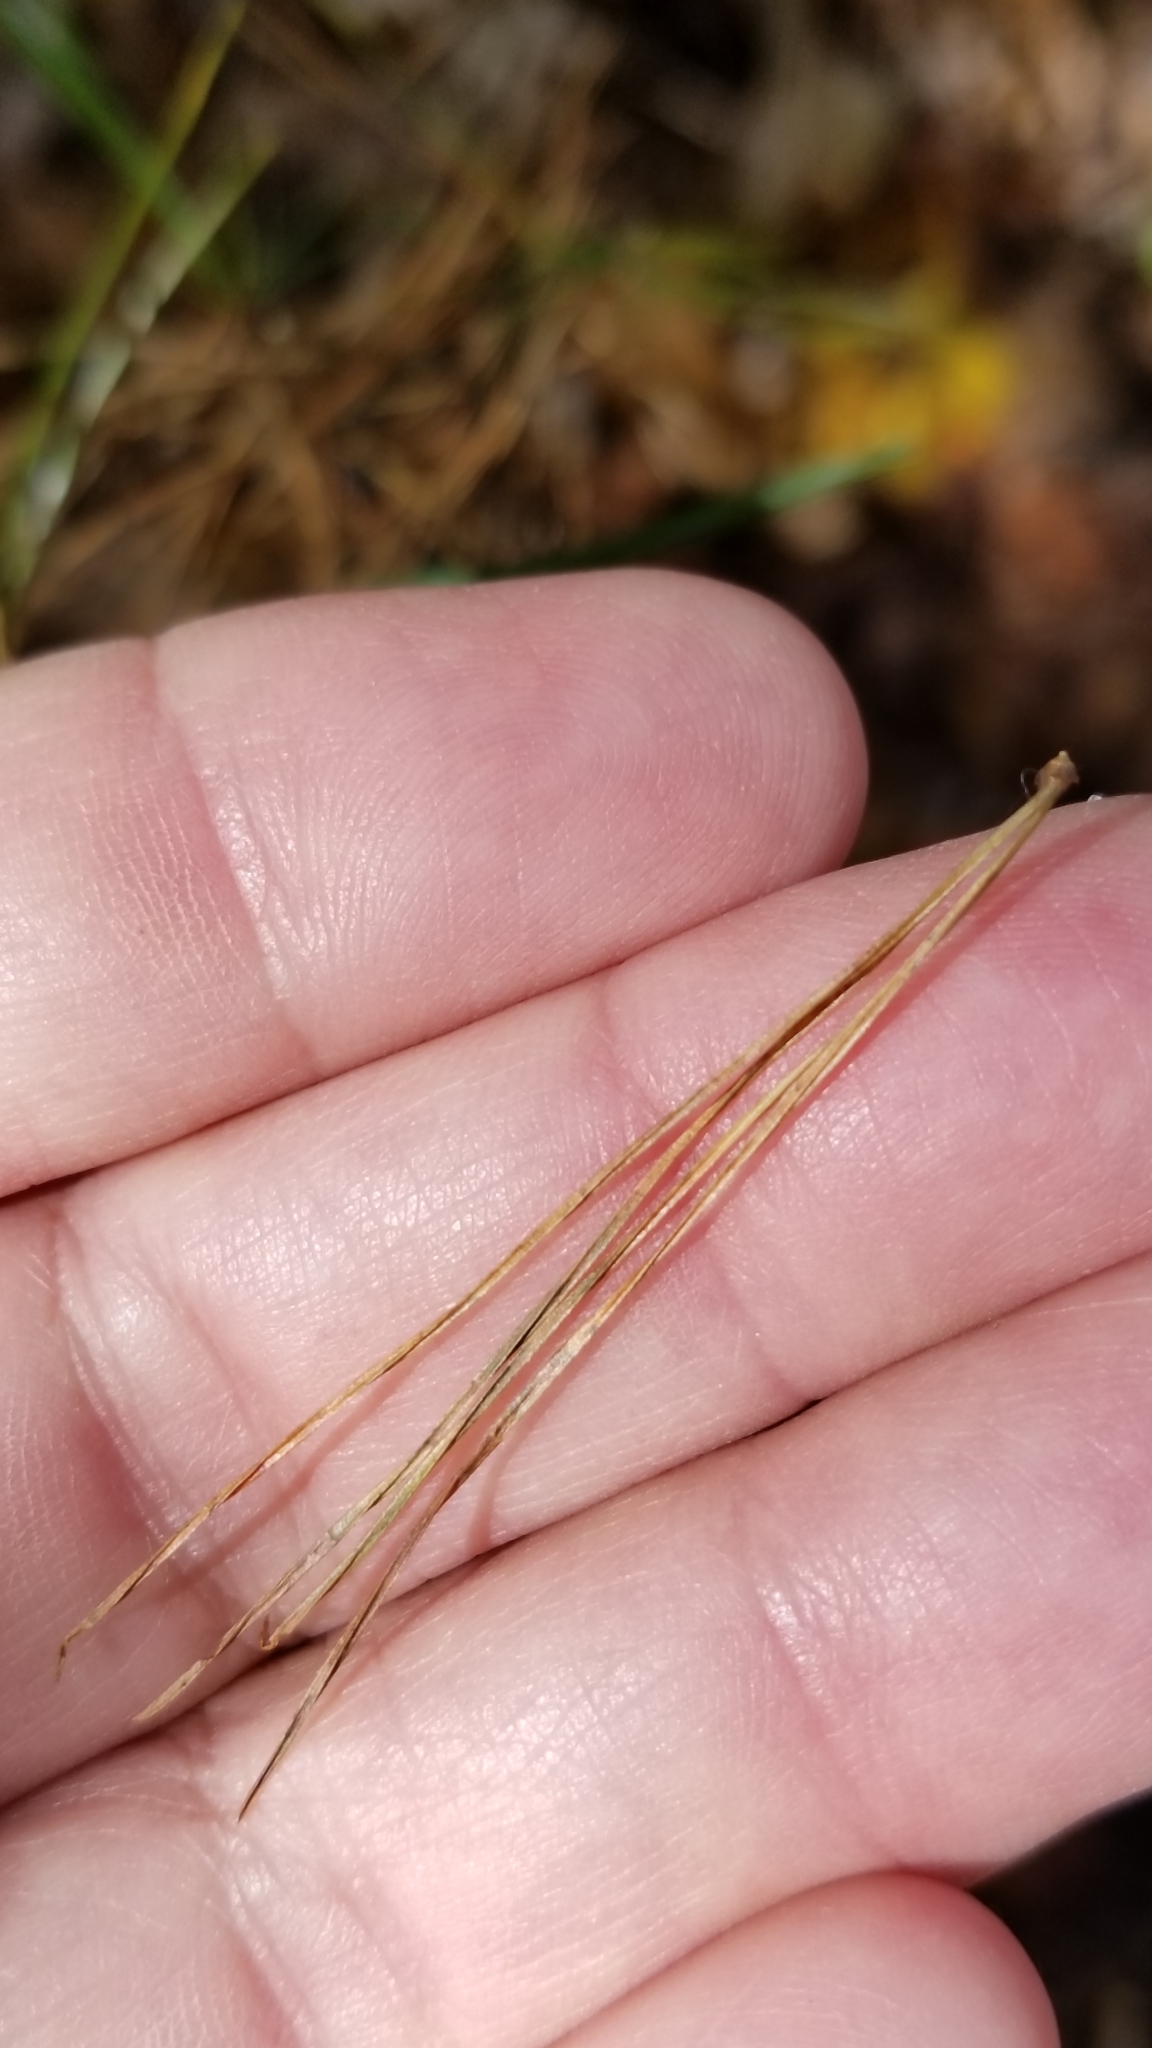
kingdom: Plantae
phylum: Tracheophyta
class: Pinopsida
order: Pinales
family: Pinaceae
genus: Pinus
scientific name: Pinus strobus
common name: Weymouth pine
